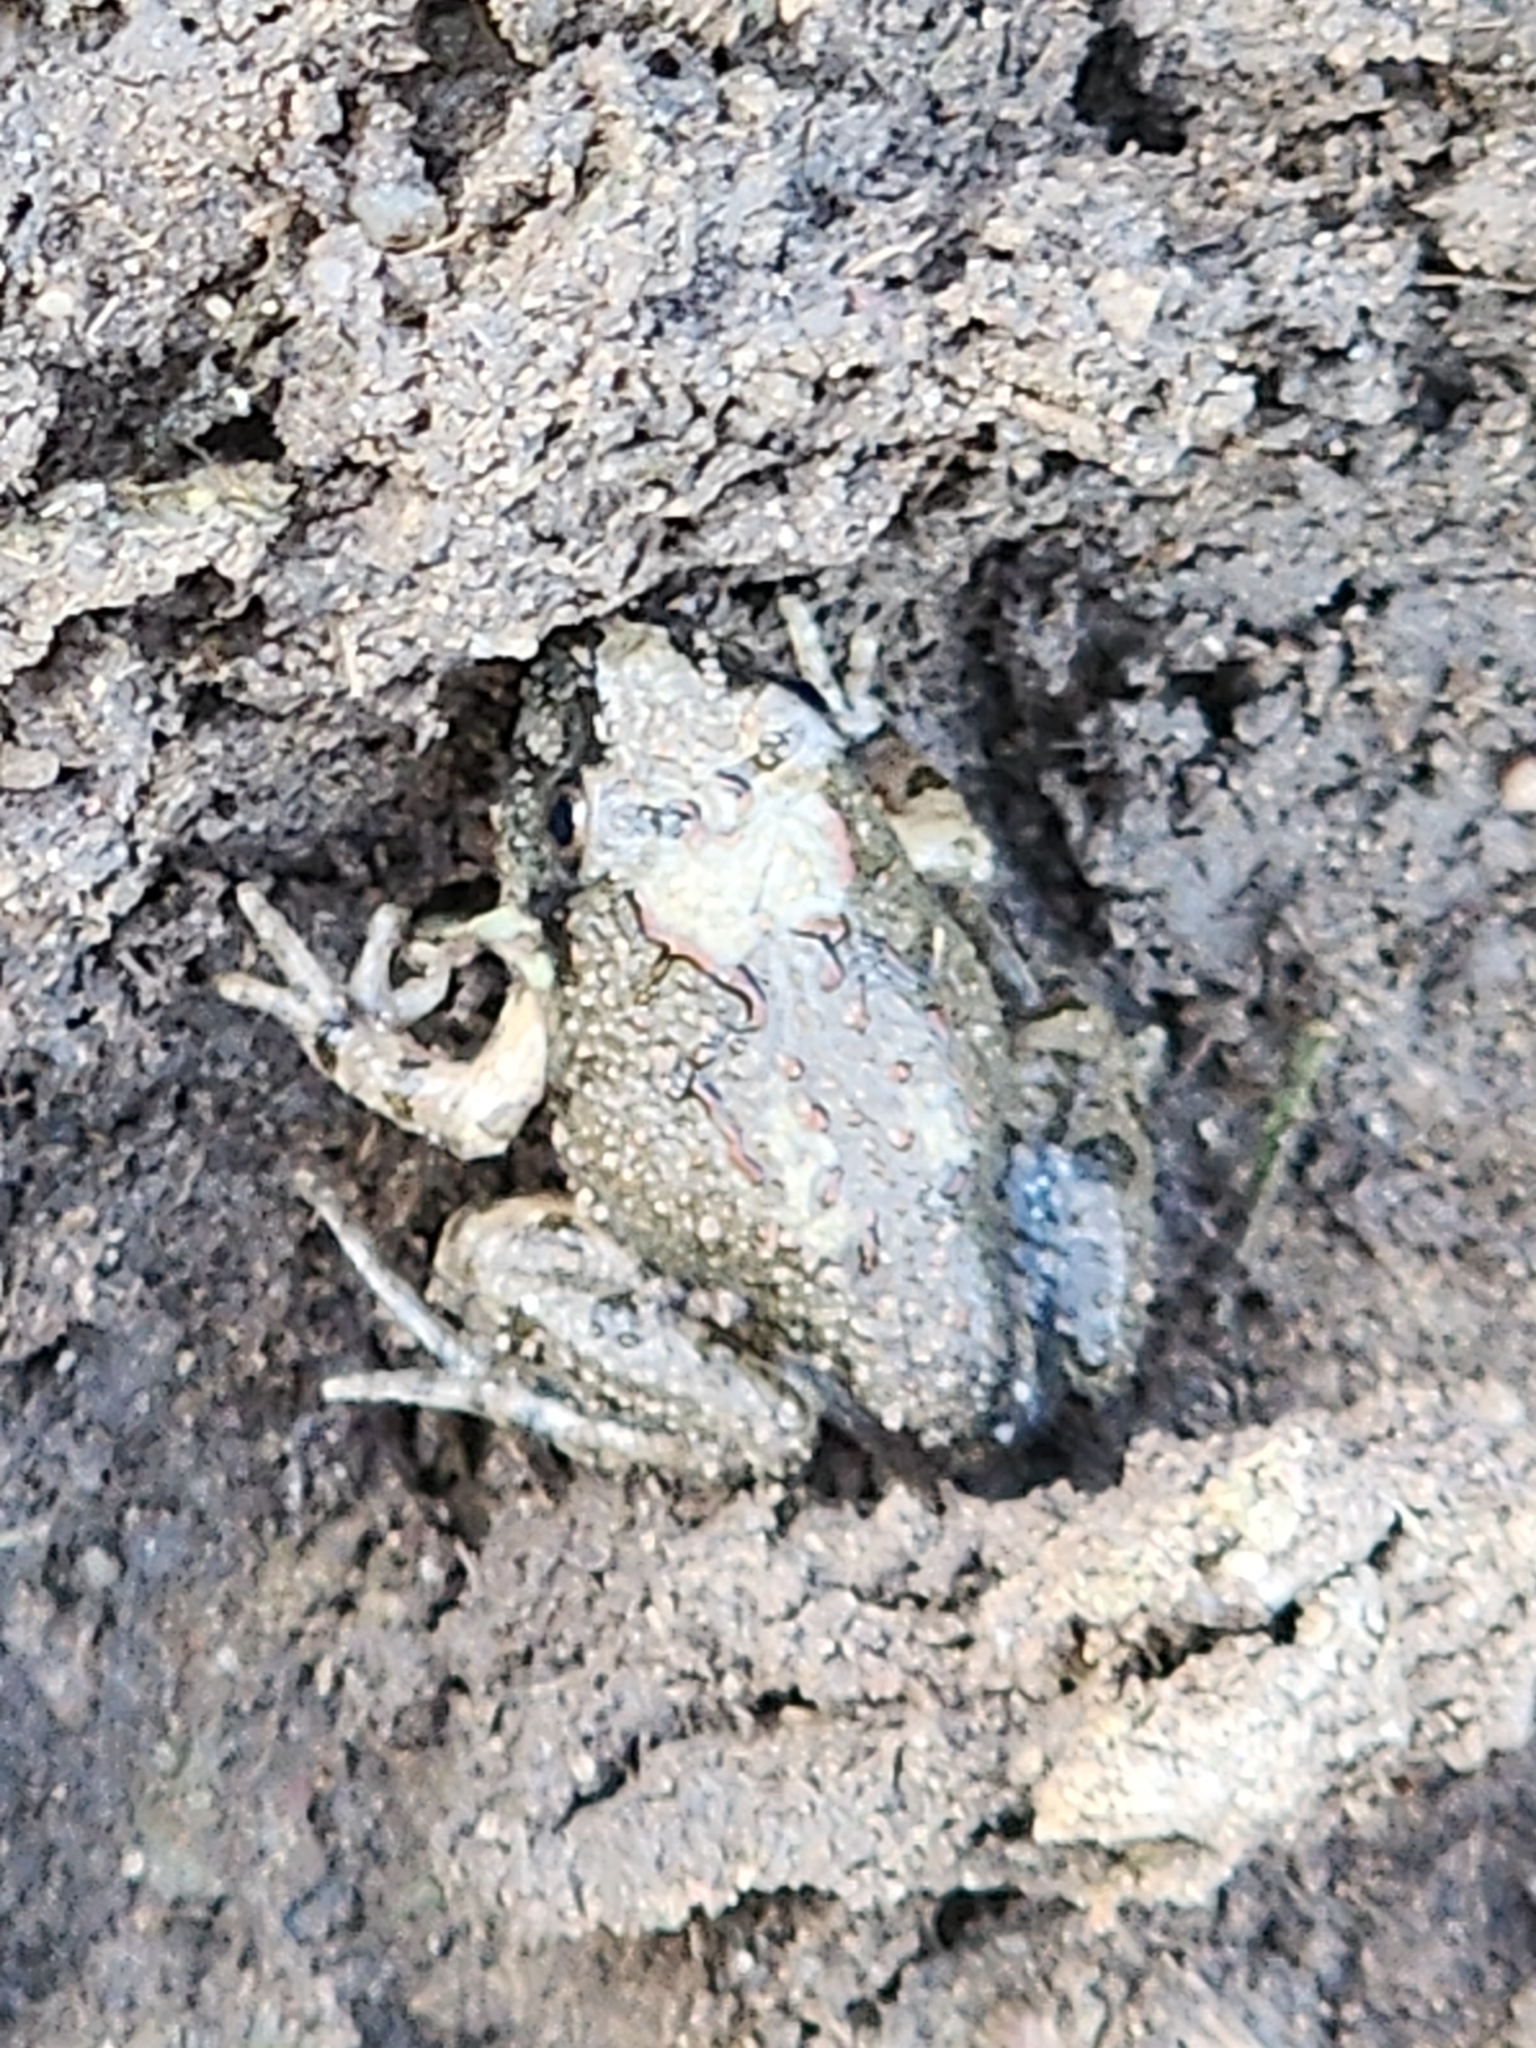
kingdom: Animalia
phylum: Chordata
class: Amphibia
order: Anura
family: Limnodynastidae
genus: Platyplectrum
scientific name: Platyplectrum ornatum
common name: Ornate burrowing frog
